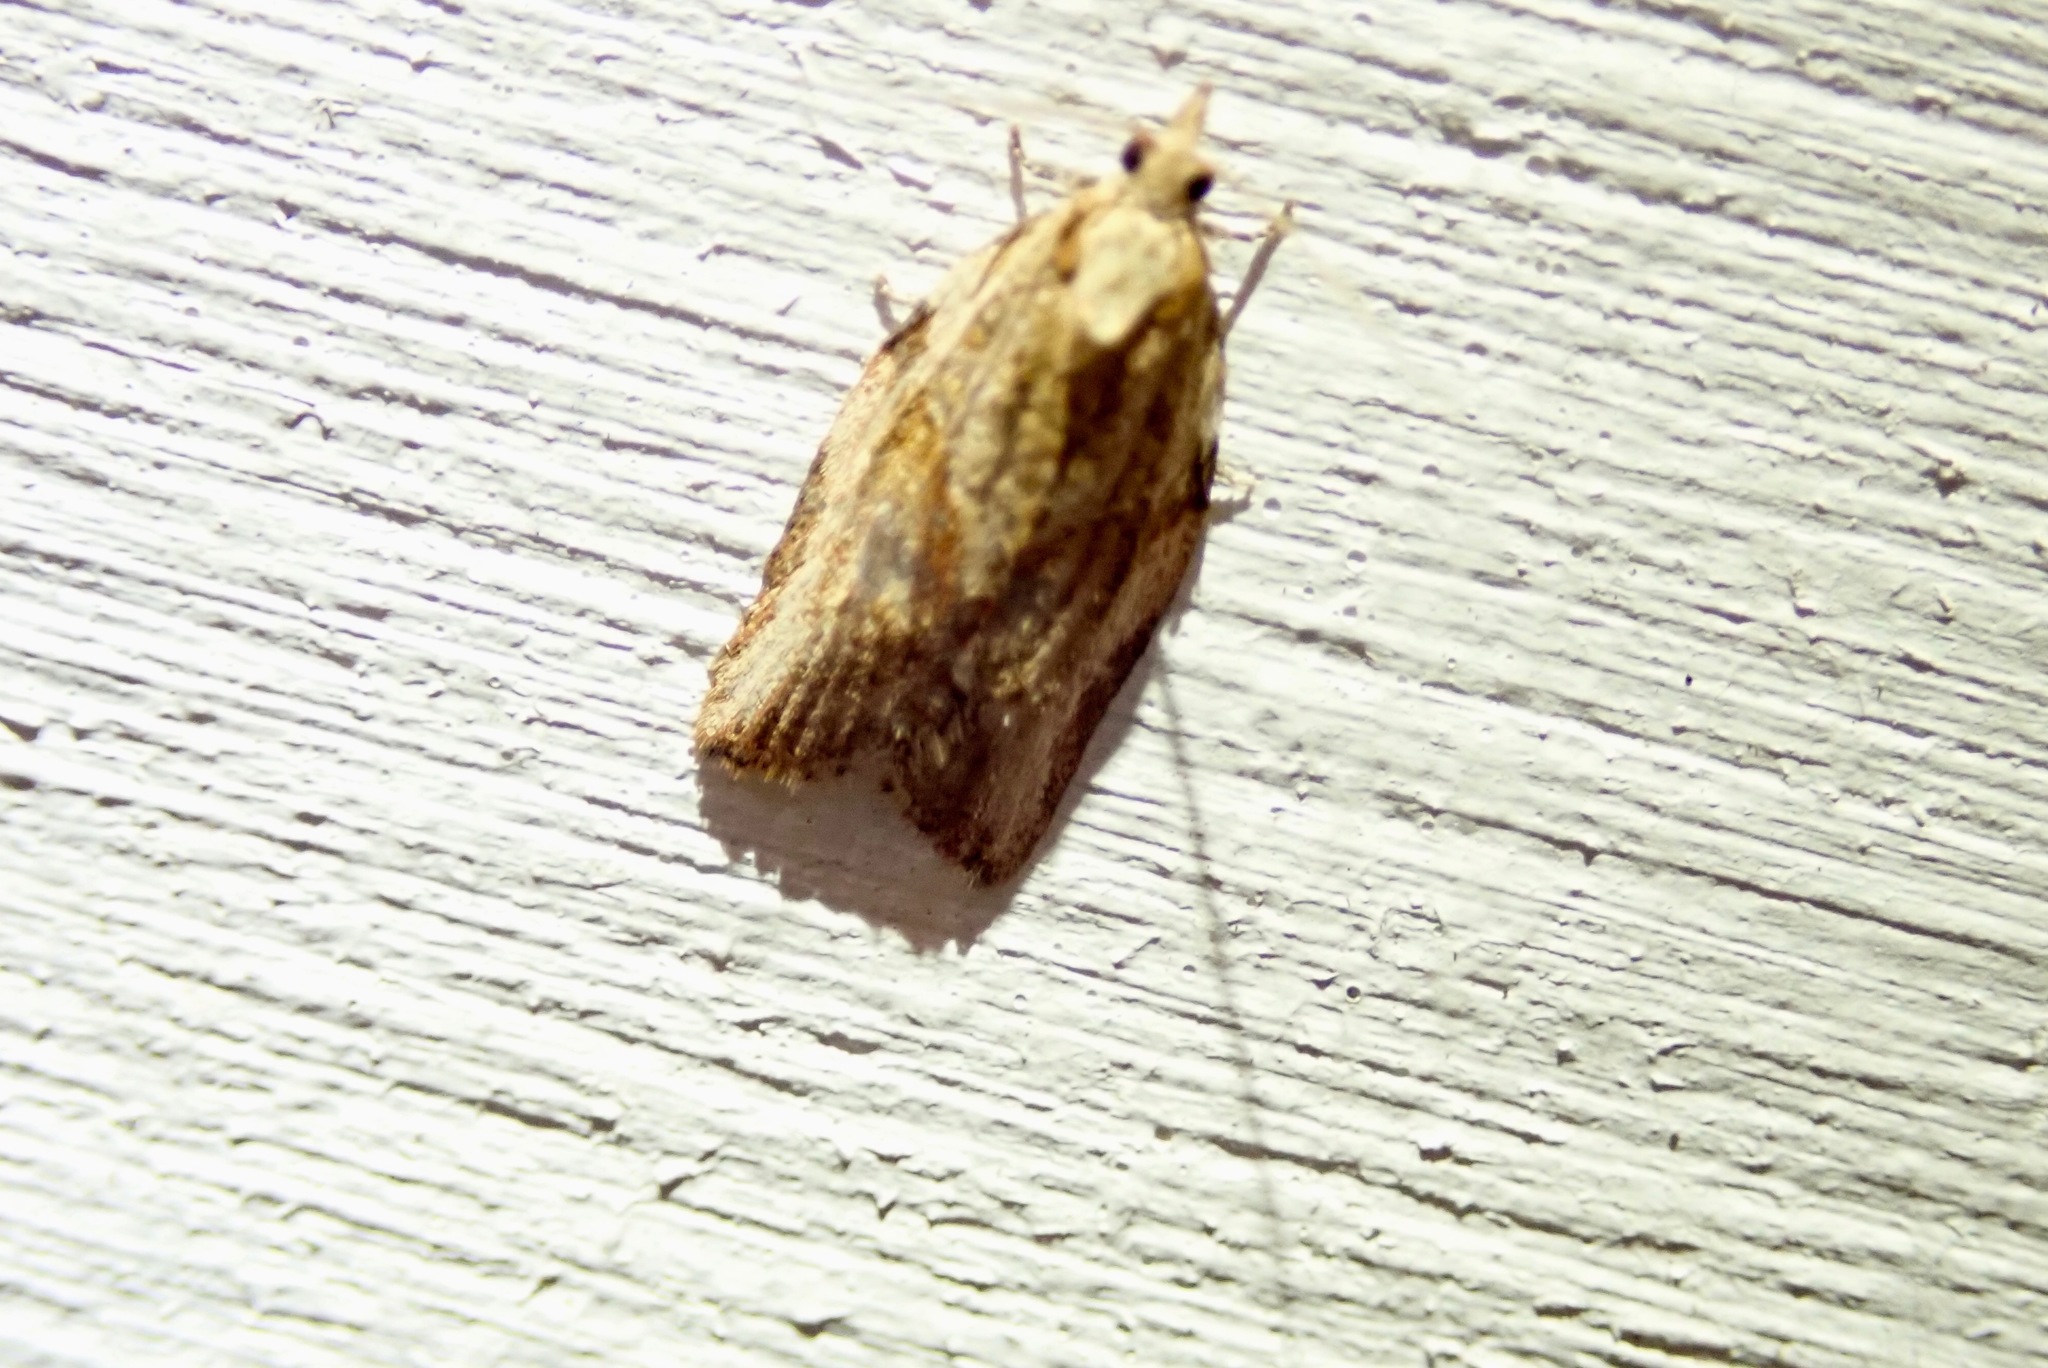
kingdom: Animalia
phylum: Arthropoda
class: Insecta
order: Lepidoptera
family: Tortricidae
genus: Epiphyas
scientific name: Epiphyas postvittana
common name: Light brown apple moth
